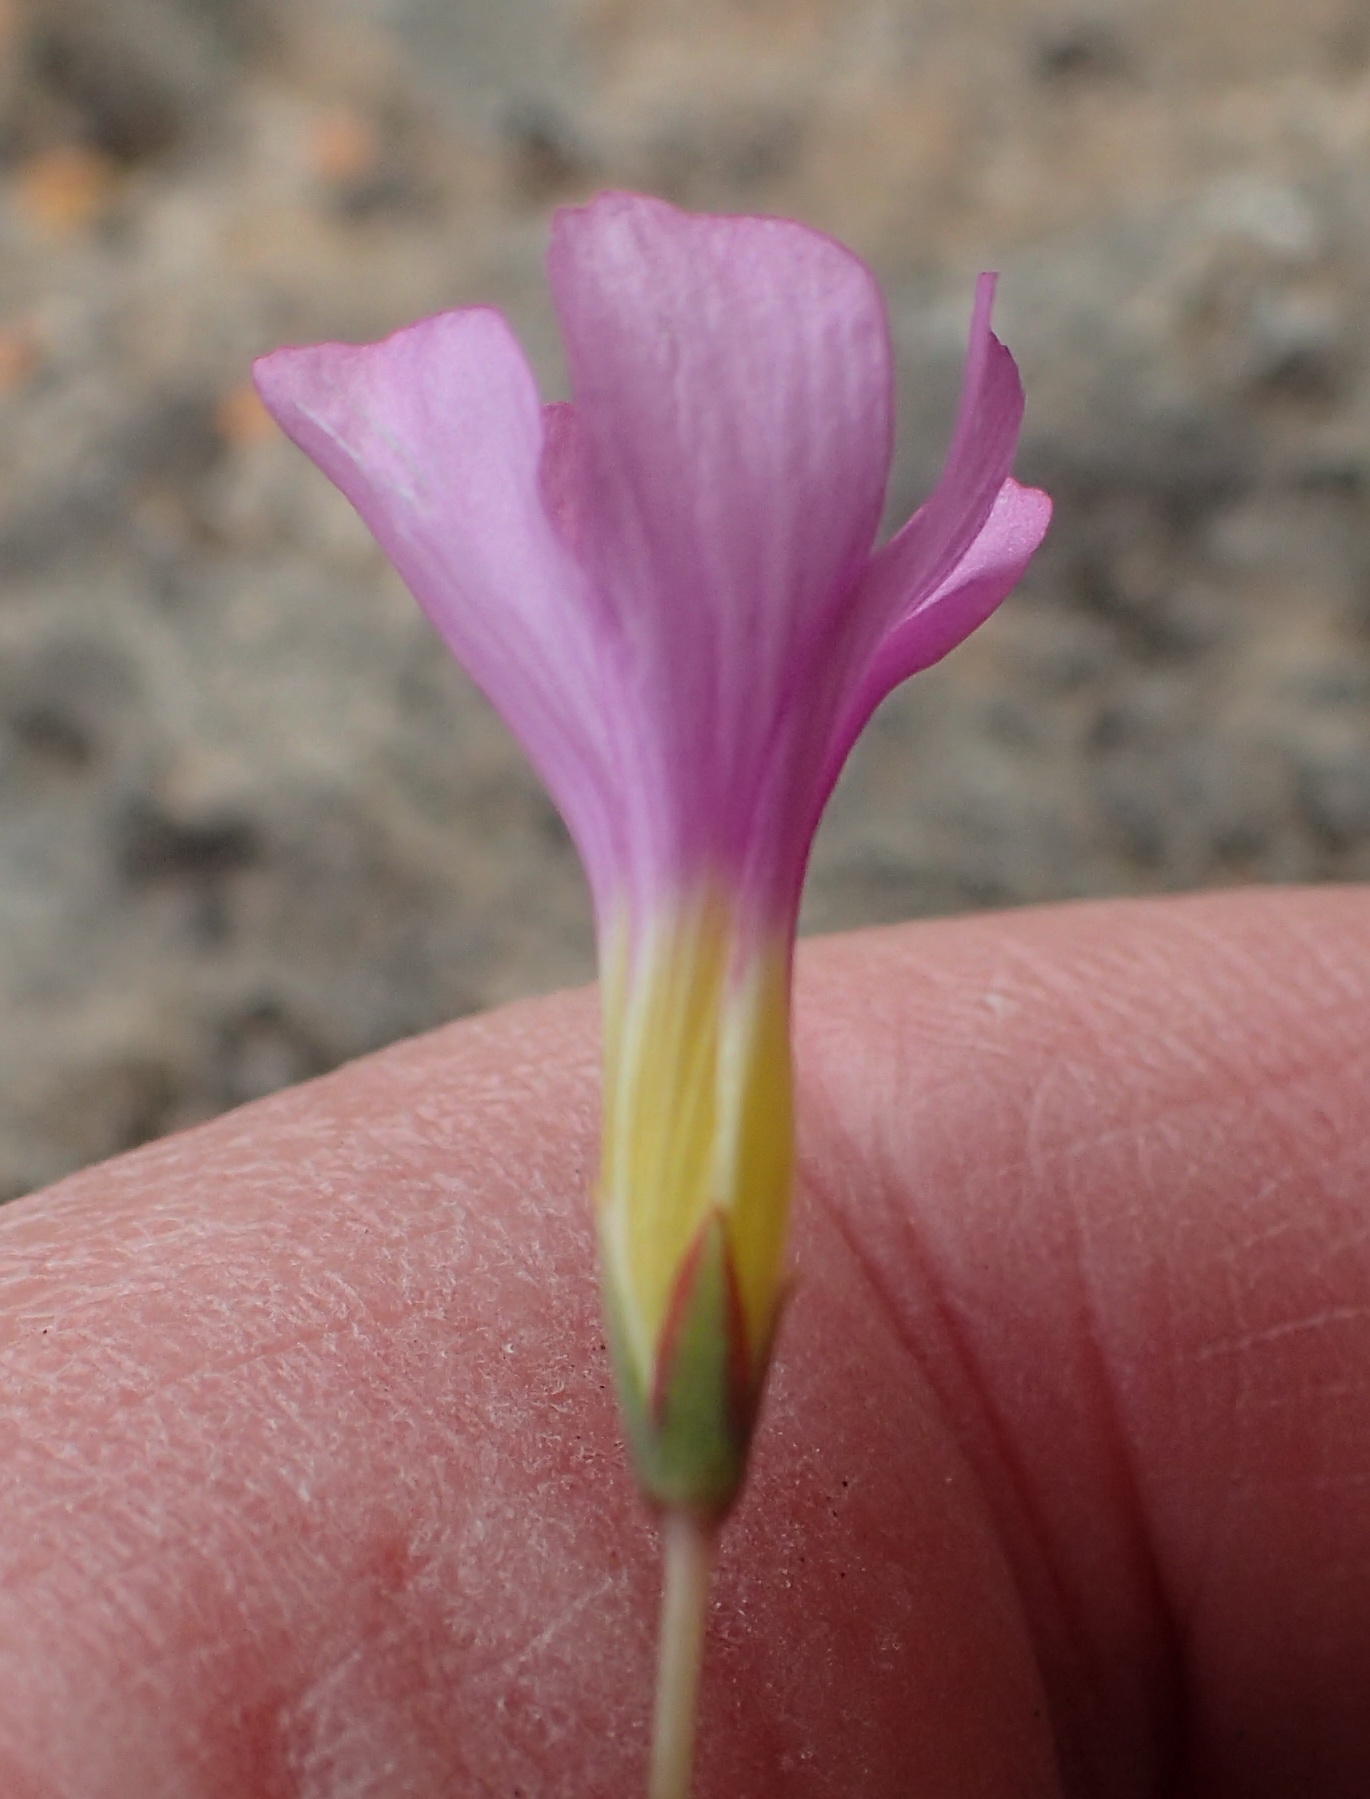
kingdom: Plantae
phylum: Tracheophyta
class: Magnoliopsida
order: Oxalidales
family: Oxalidaceae
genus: Oxalis
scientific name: Oxalis dichotoma
